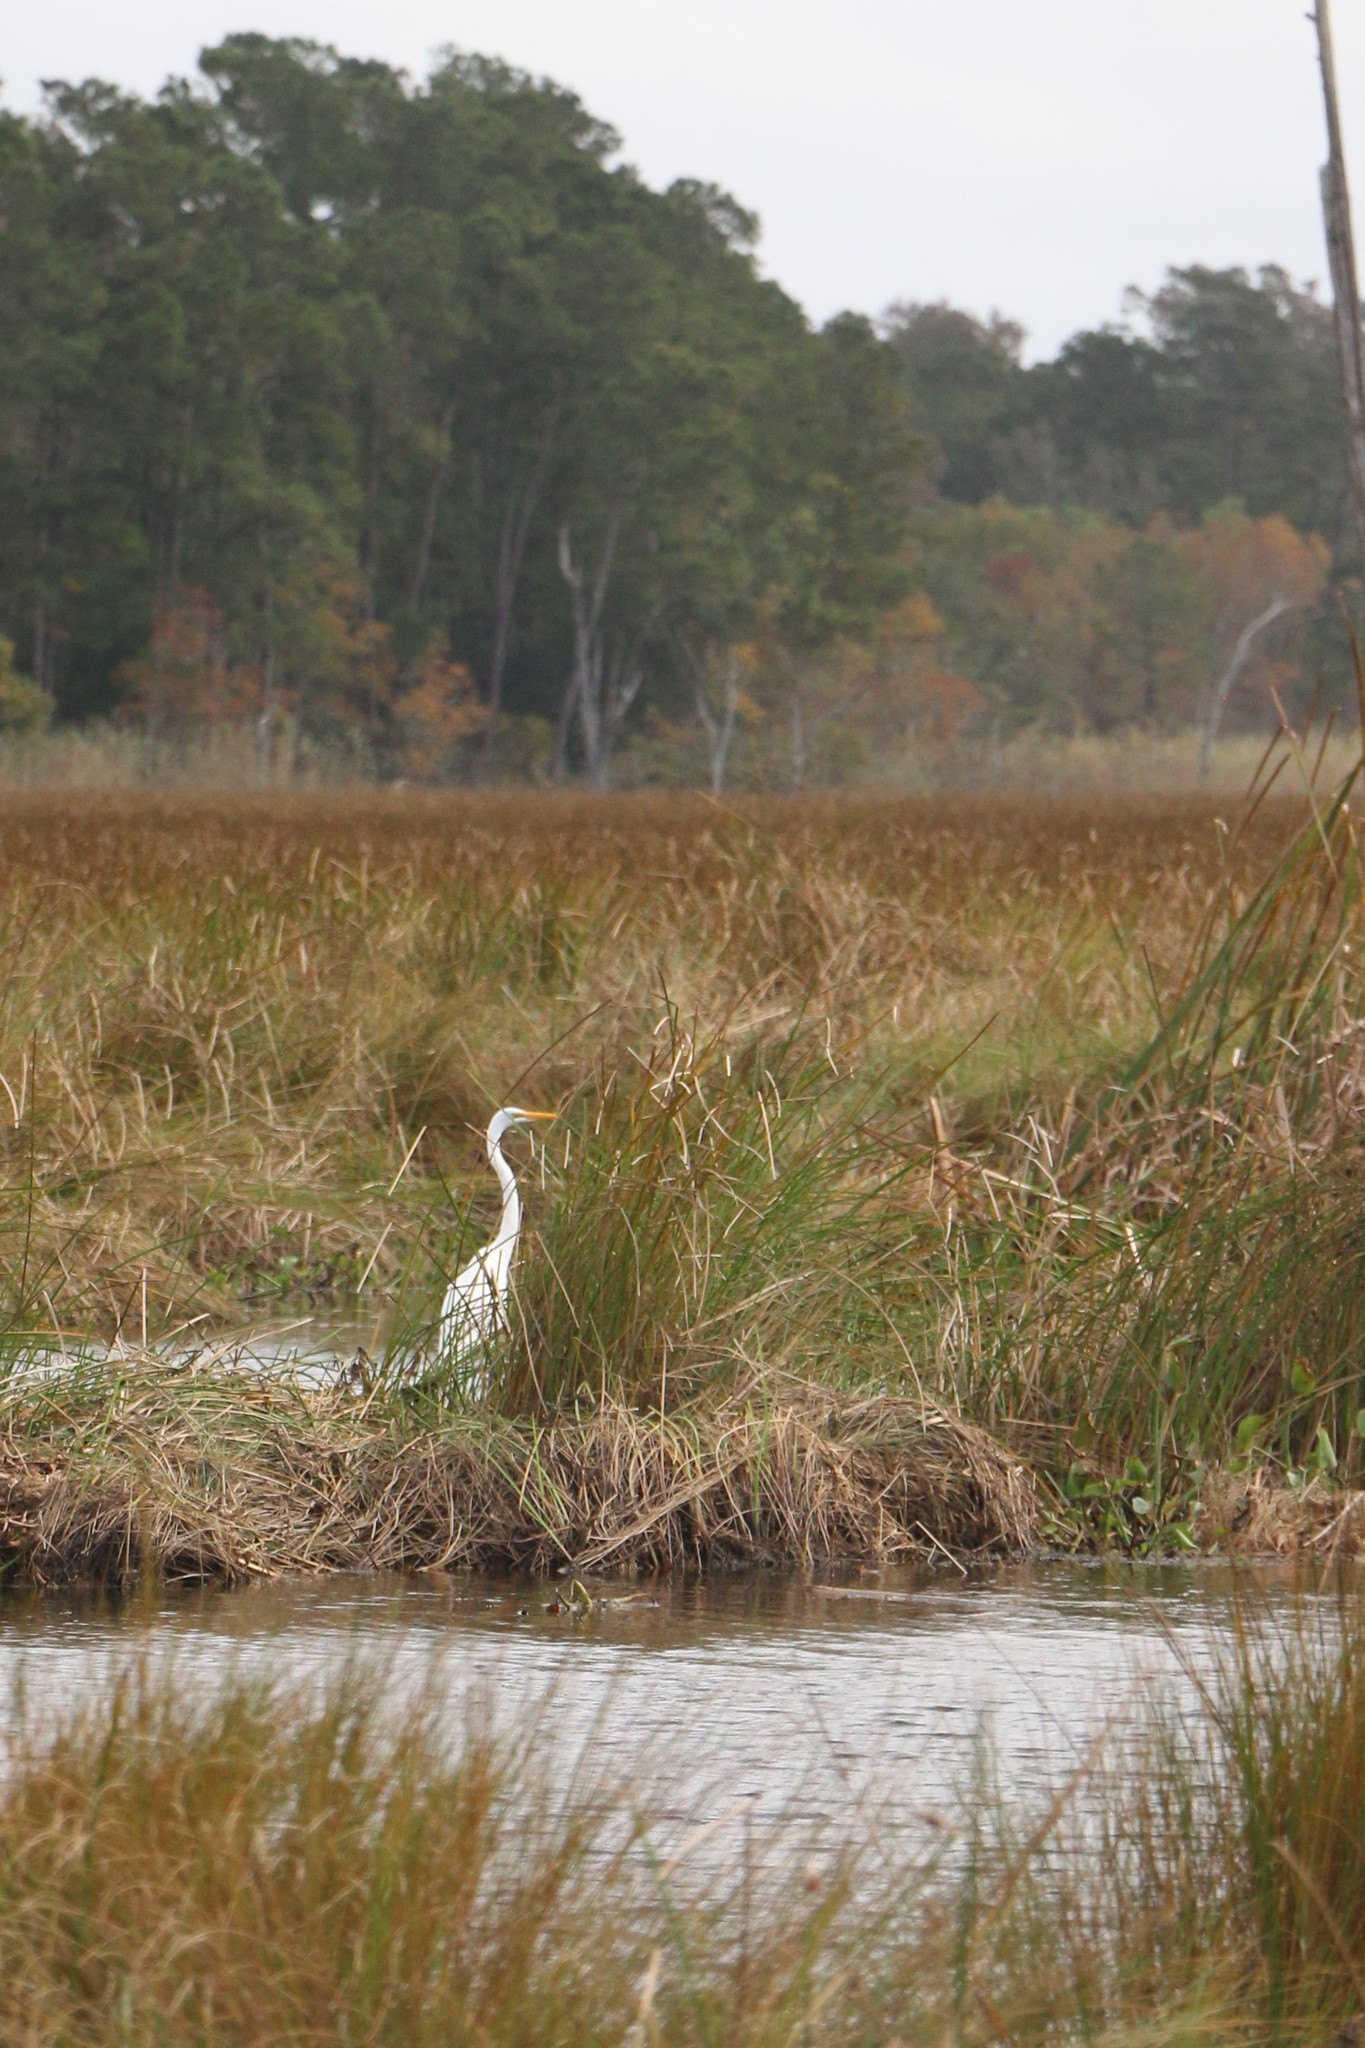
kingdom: Animalia
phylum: Chordata
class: Aves
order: Pelecaniformes
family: Ardeidae
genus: Ardea
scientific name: Ardea alba
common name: Great egret
